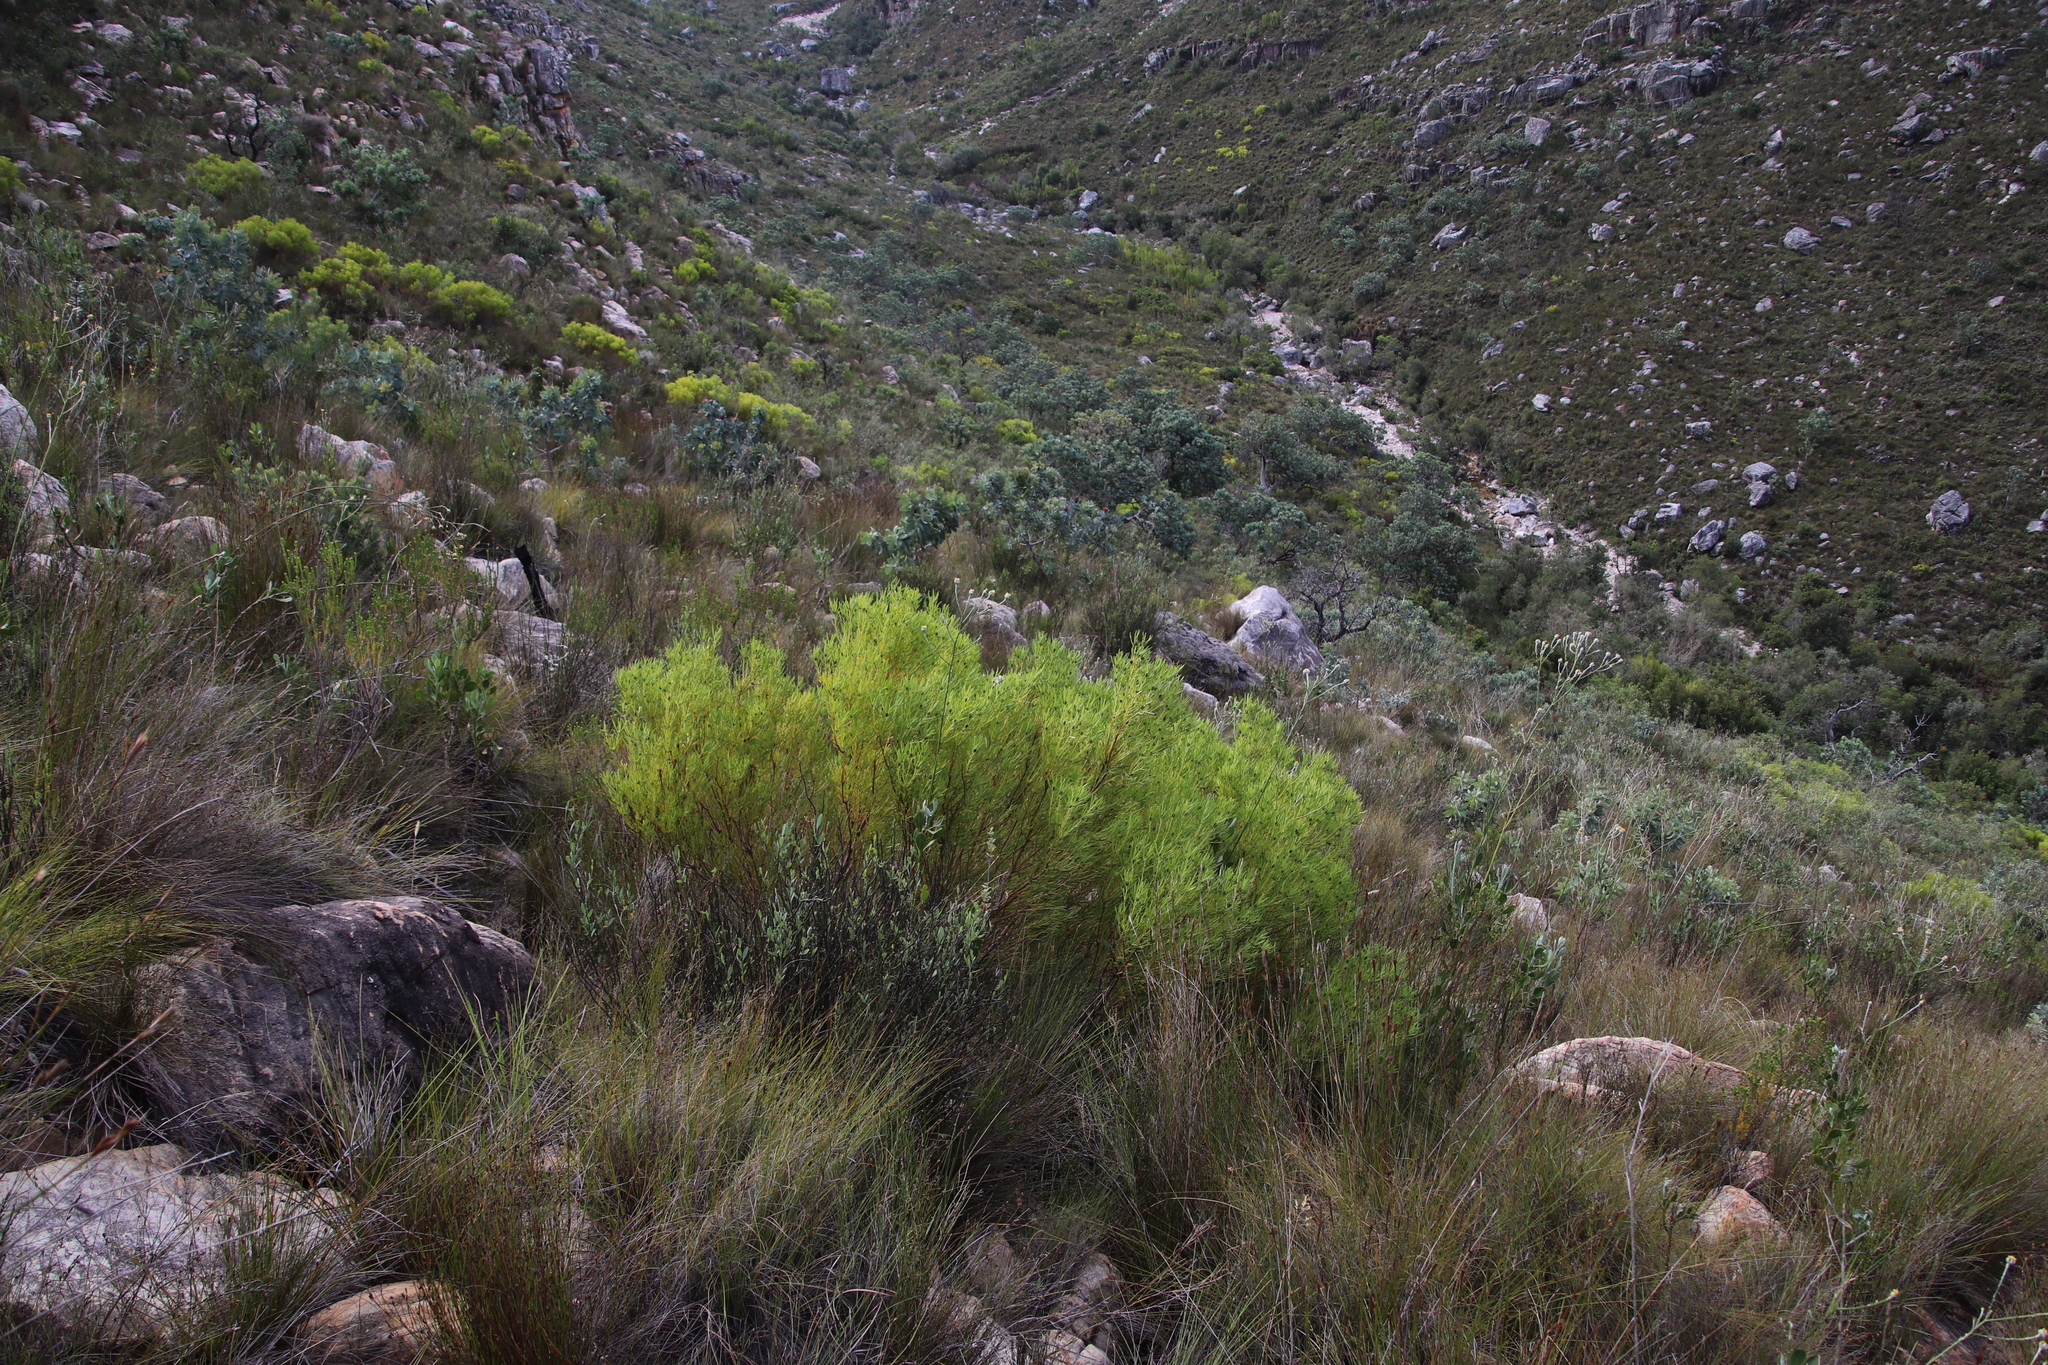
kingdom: Plantae
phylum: Tracheophyta
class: Magnoliopsida
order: Proteales
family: Proteaceae
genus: Leucadendron
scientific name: Leucadendron salignum
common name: Common sunshine conebush
